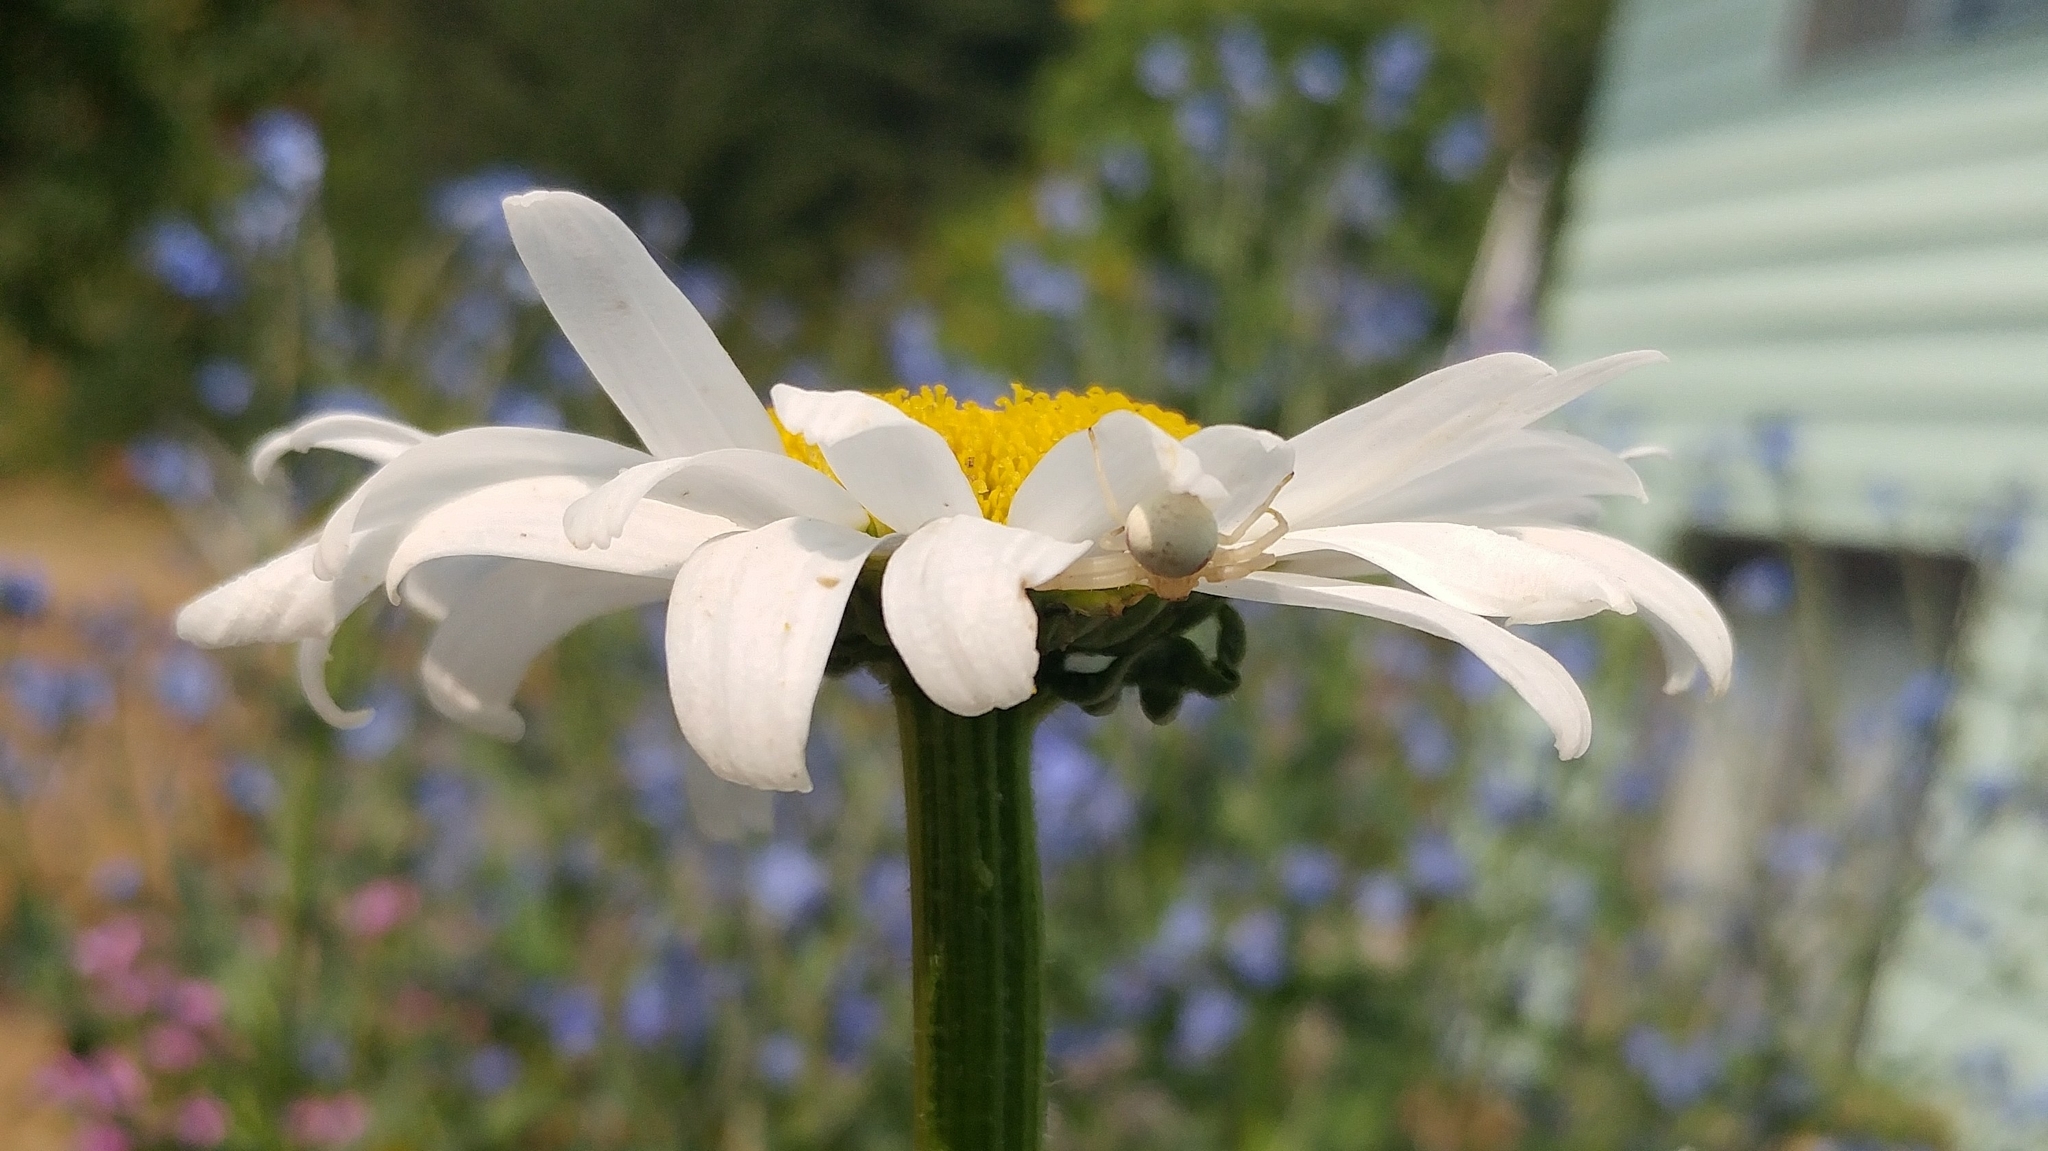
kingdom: Animalia
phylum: Arthropoda
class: Arachnida
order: Araneae
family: Thomisidae
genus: Misumena
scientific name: Misumena vatia
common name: Goldenrod crab spider
